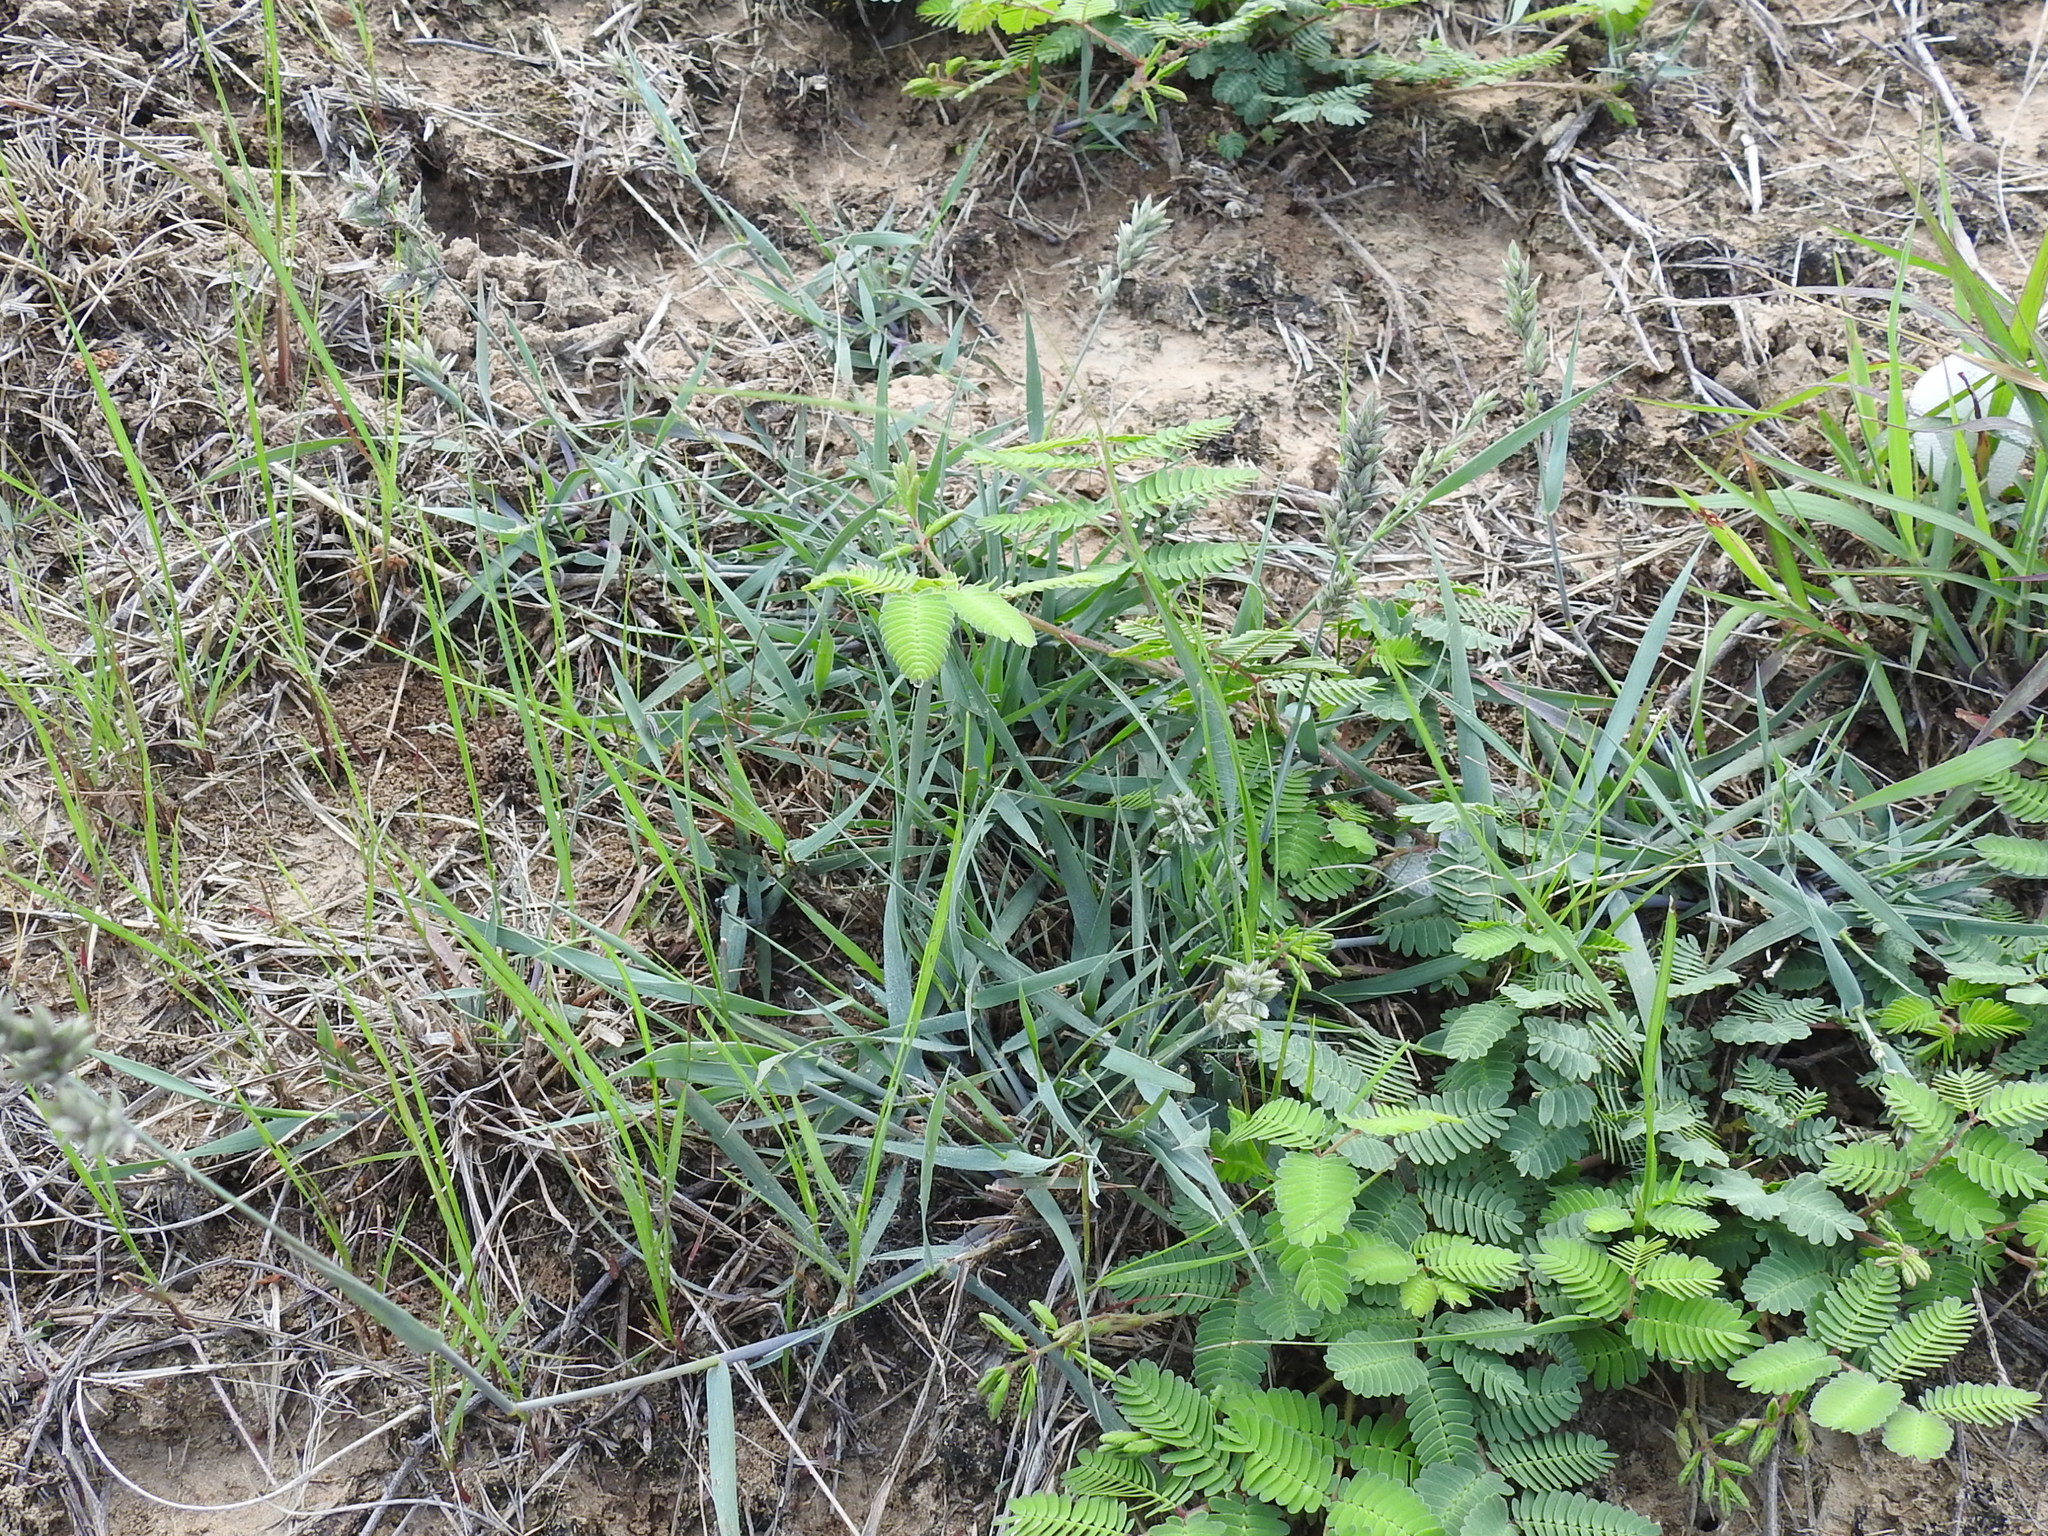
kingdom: Plantae
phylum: Tracheophyta
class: Liliopsida
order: Poales
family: Poaceae
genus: Eragrostis
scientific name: Eragrostis secundiflora
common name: Red love grass
